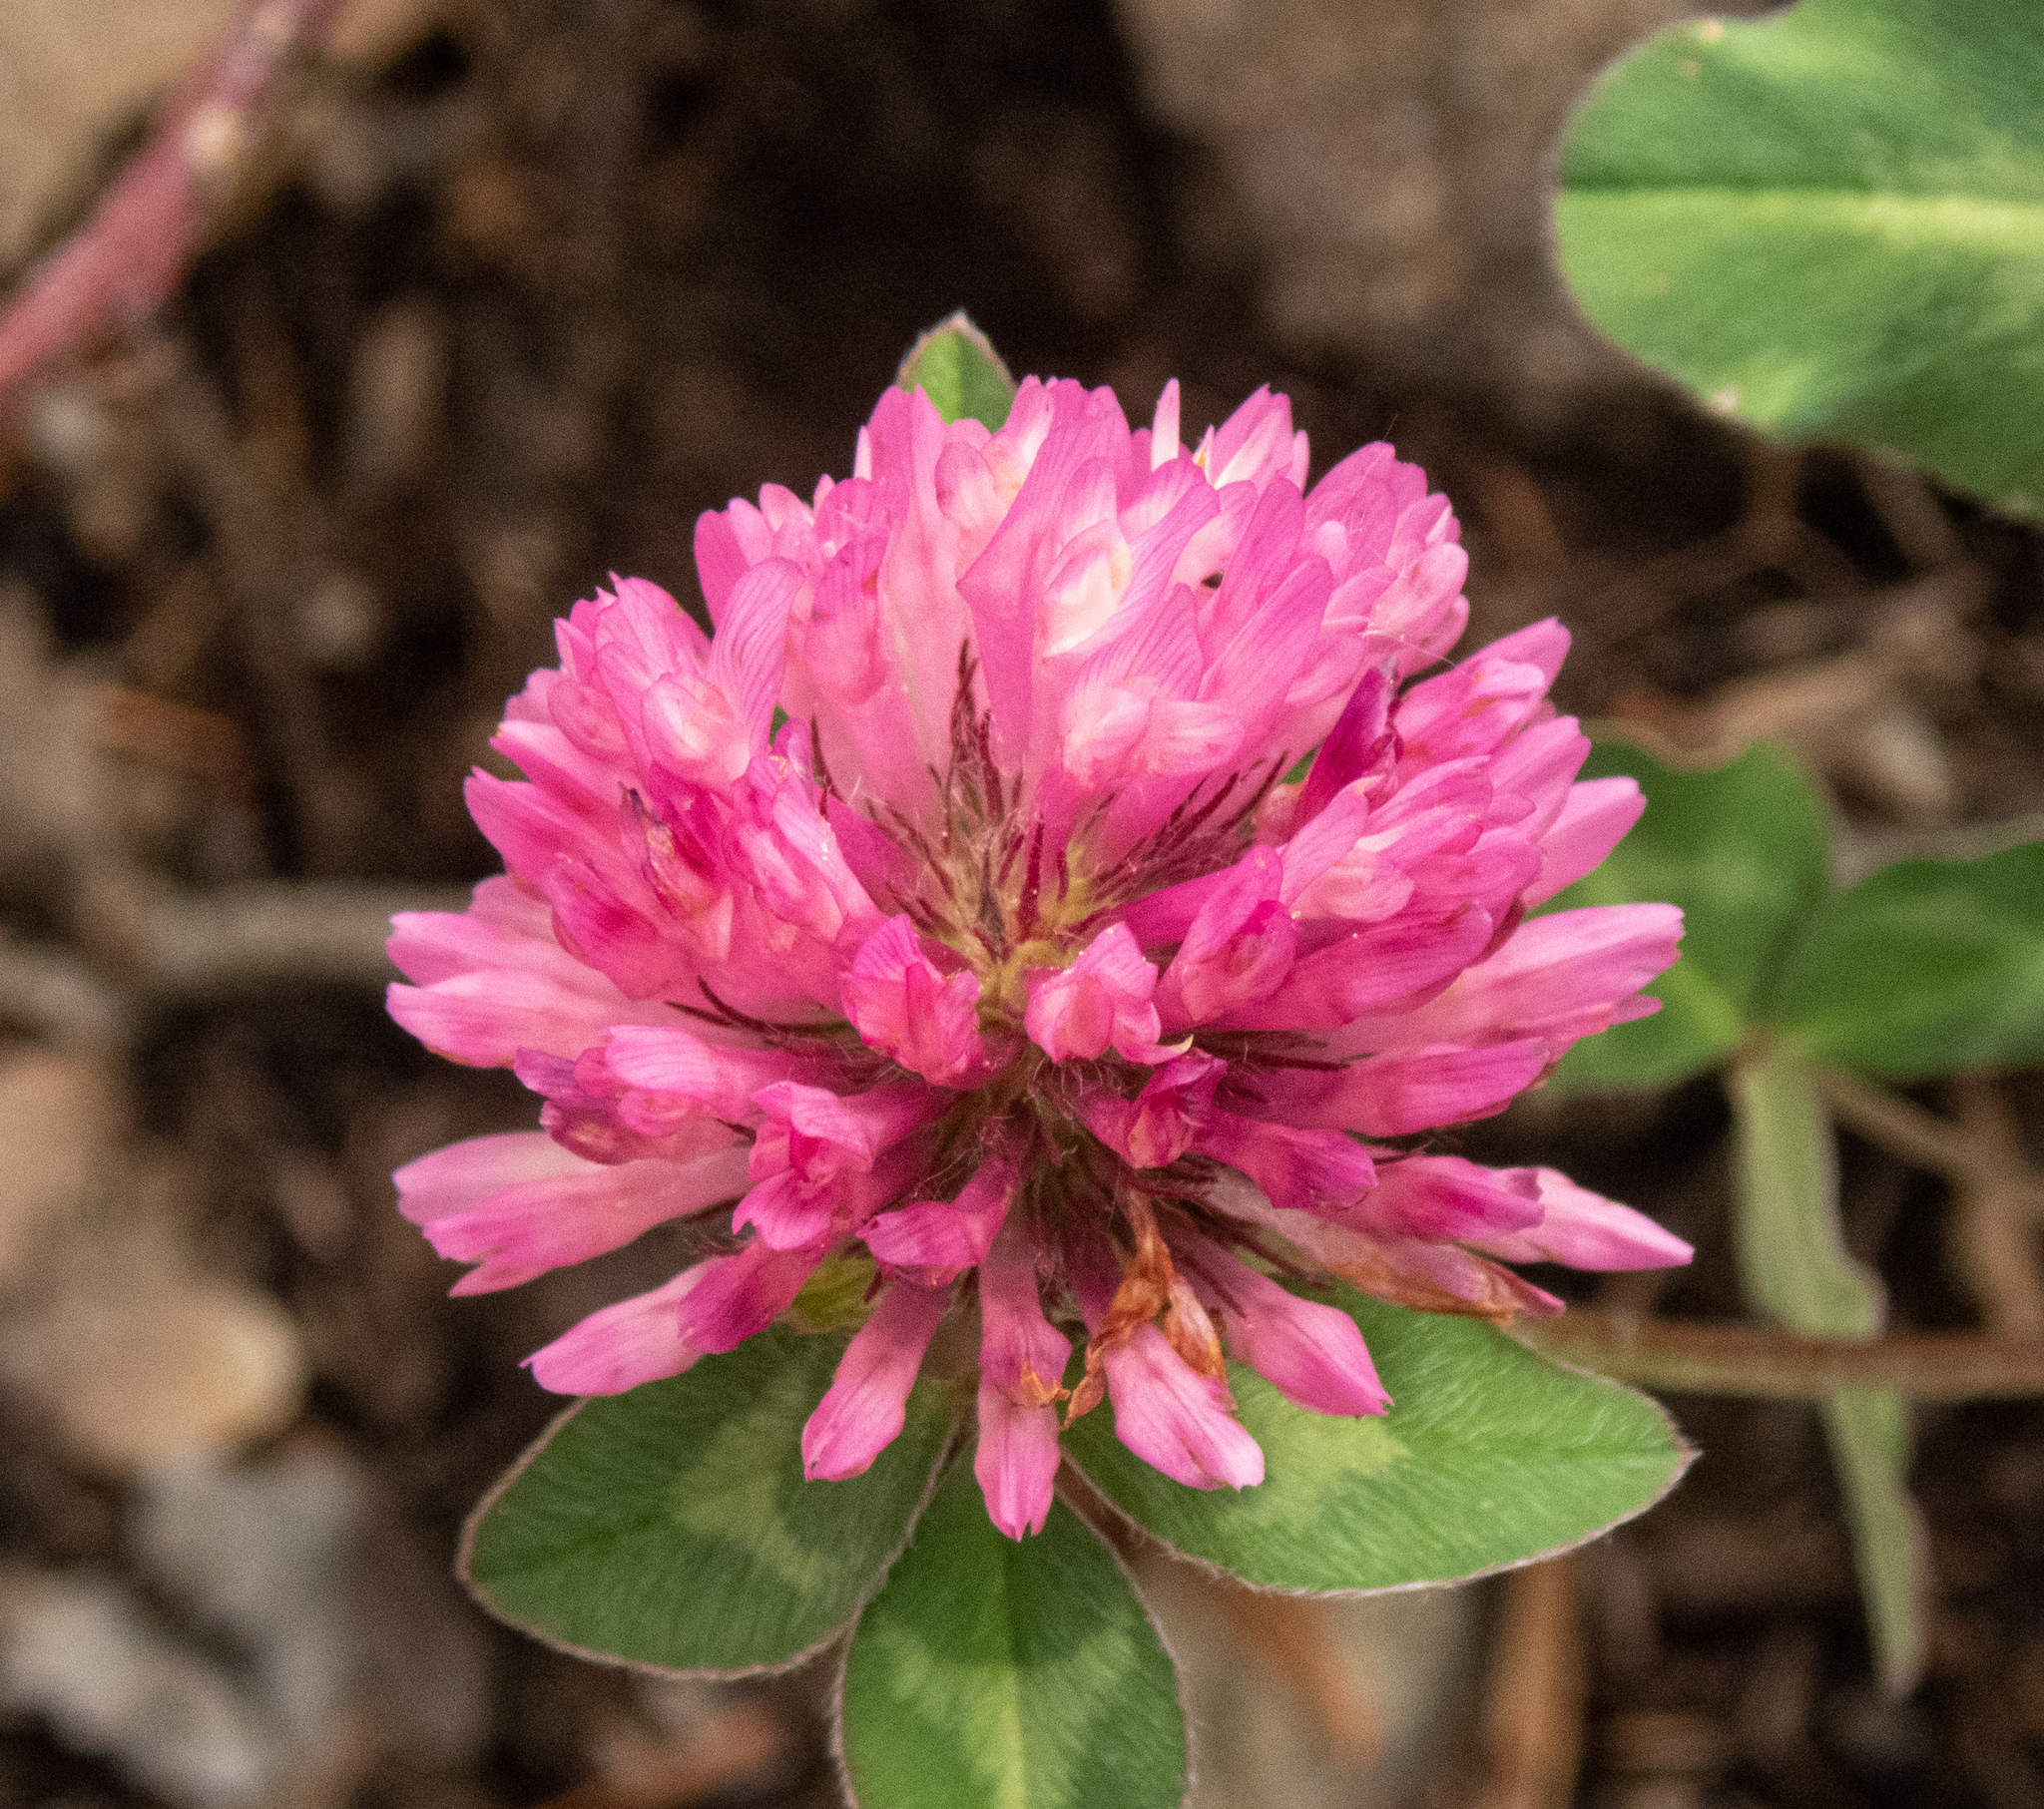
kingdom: Plantae
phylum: Tracheophyta
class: Magnoliopsida
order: Fabales
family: Fabaceae
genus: Trifolium
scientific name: Trifolium pratense
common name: Red clover
